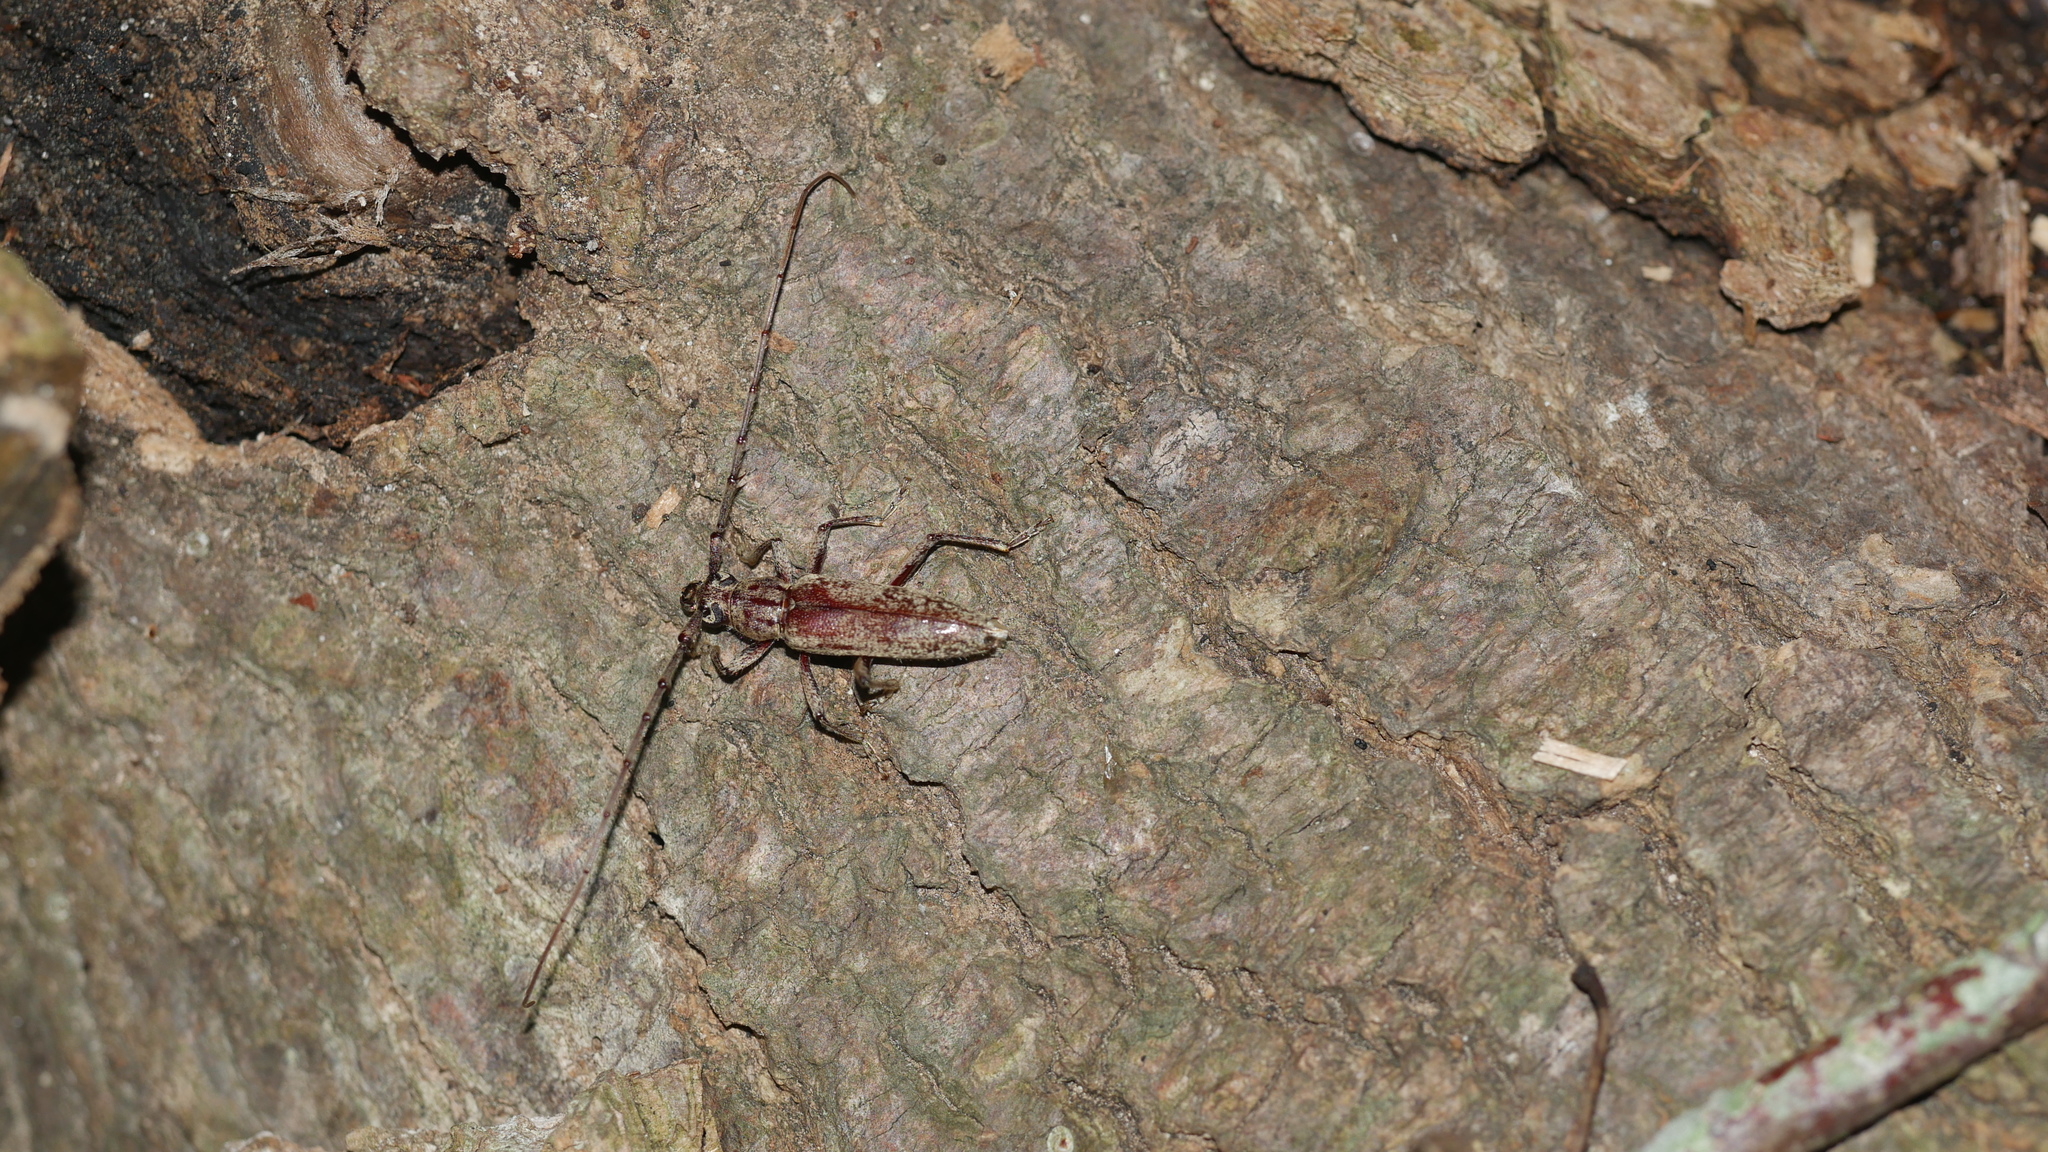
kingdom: Animalia
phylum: Arthropoda
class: Insecta
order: Coleoptera
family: Cerambycidae
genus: Elaphidion
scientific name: Elaphidion mucronatum
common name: Spined oak borer
